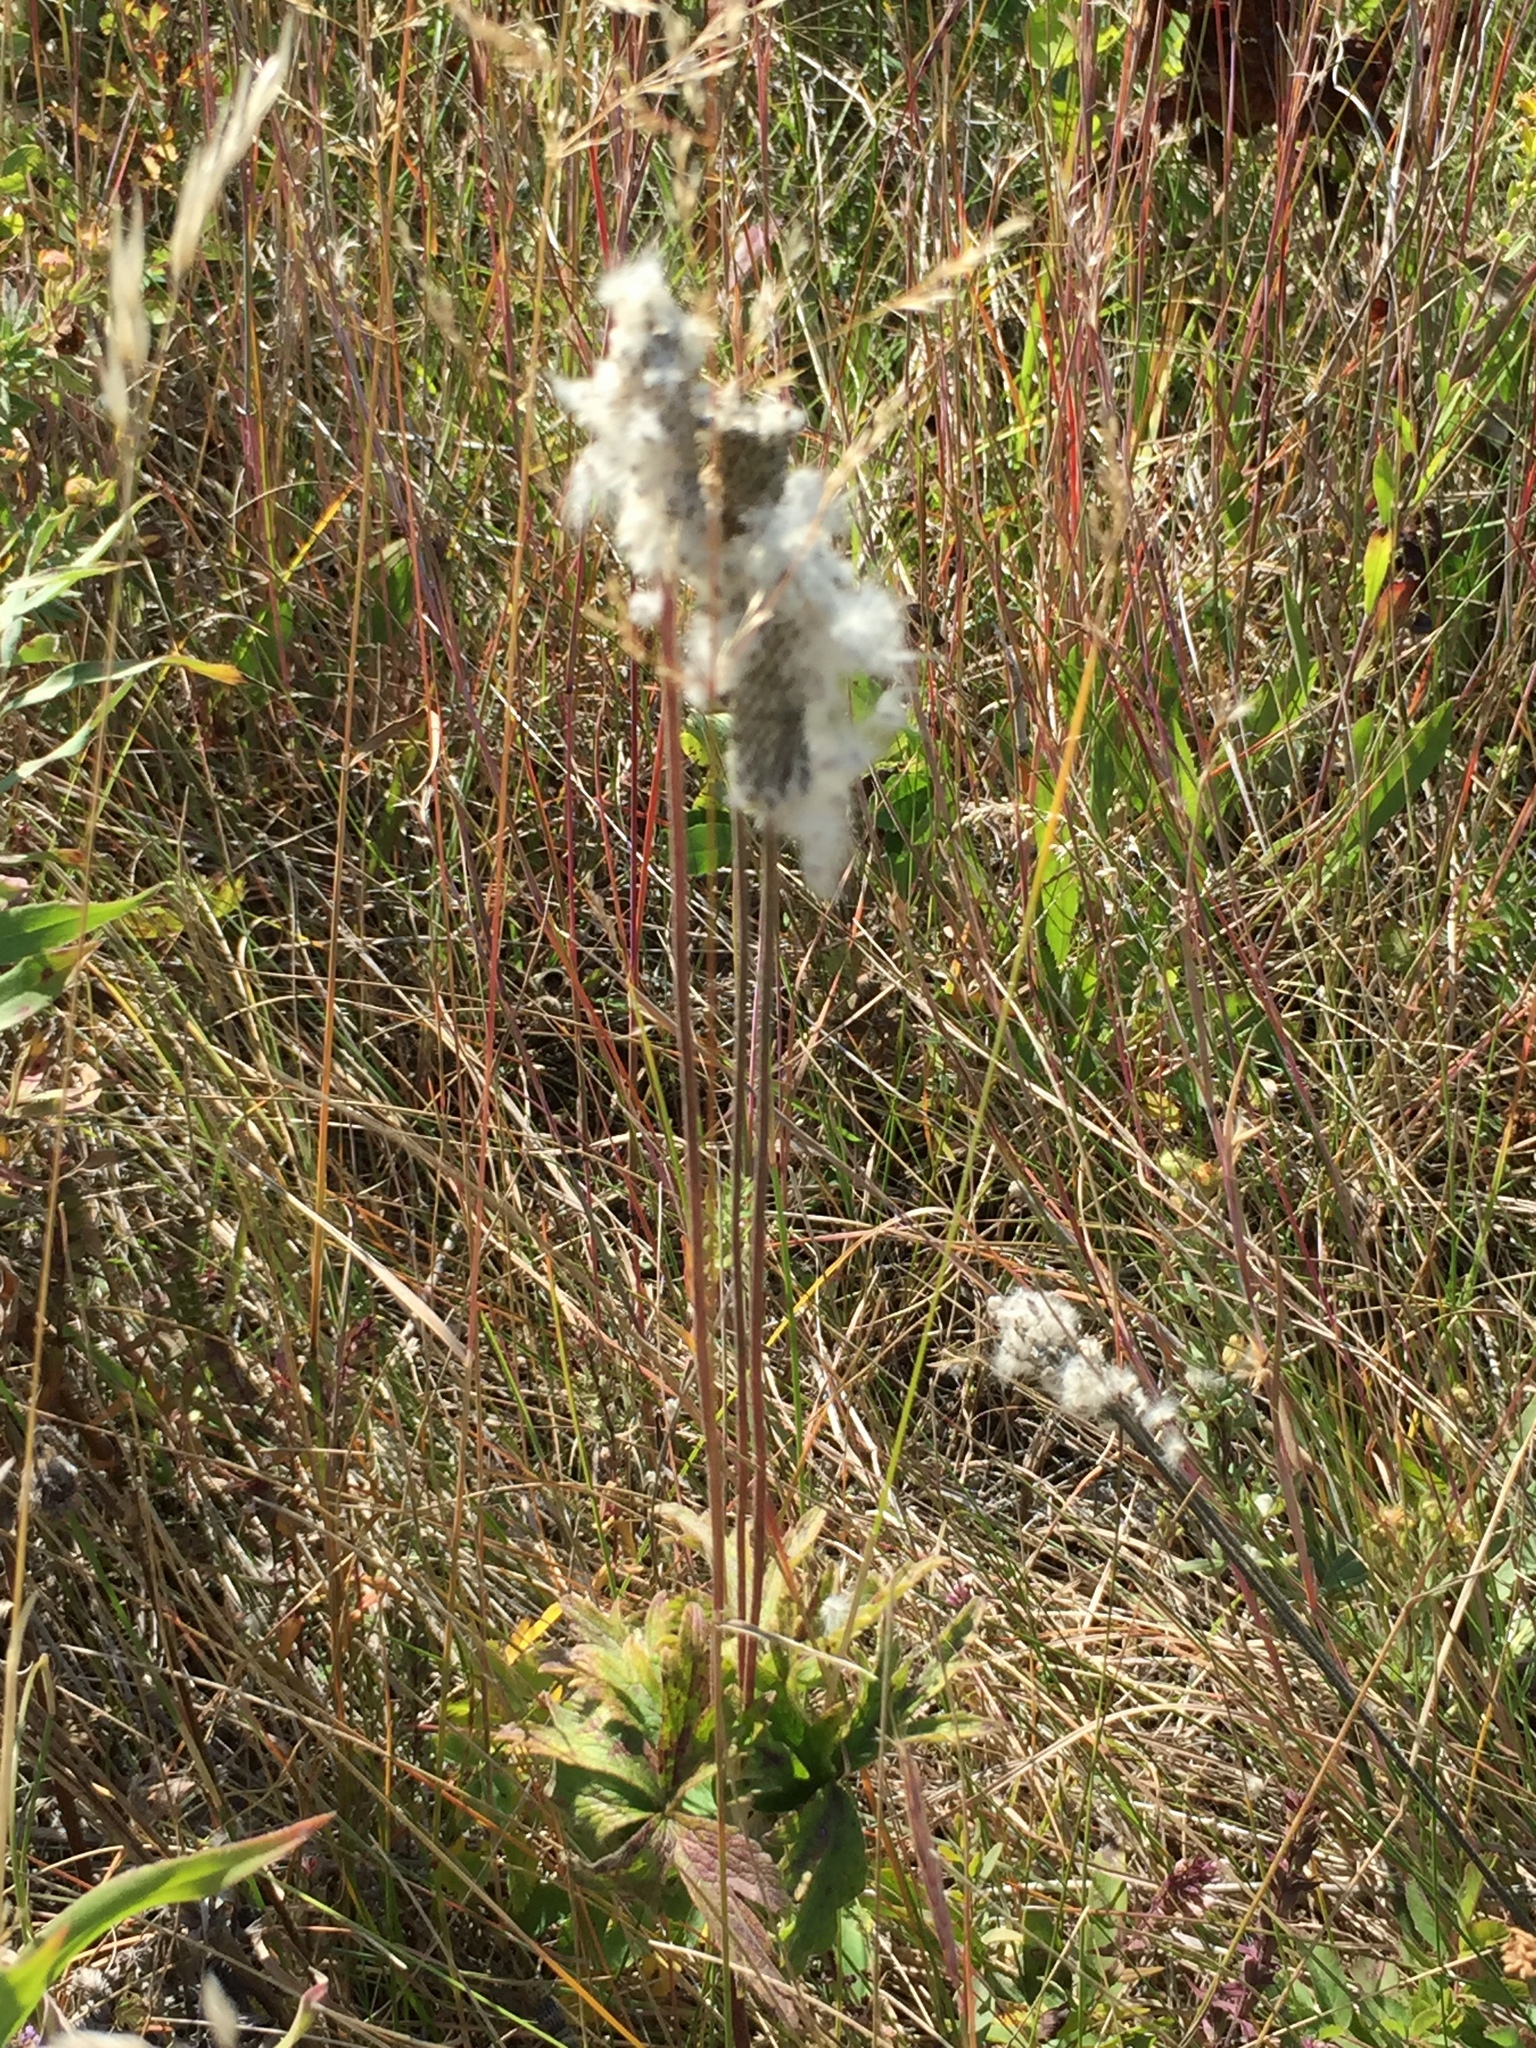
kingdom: Plantae
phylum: Tracheophyta
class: Magnoliopsida
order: Ranunculales
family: Ranunculaceae
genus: Anemone
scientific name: Anemone cylindrica
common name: Candle anemone
